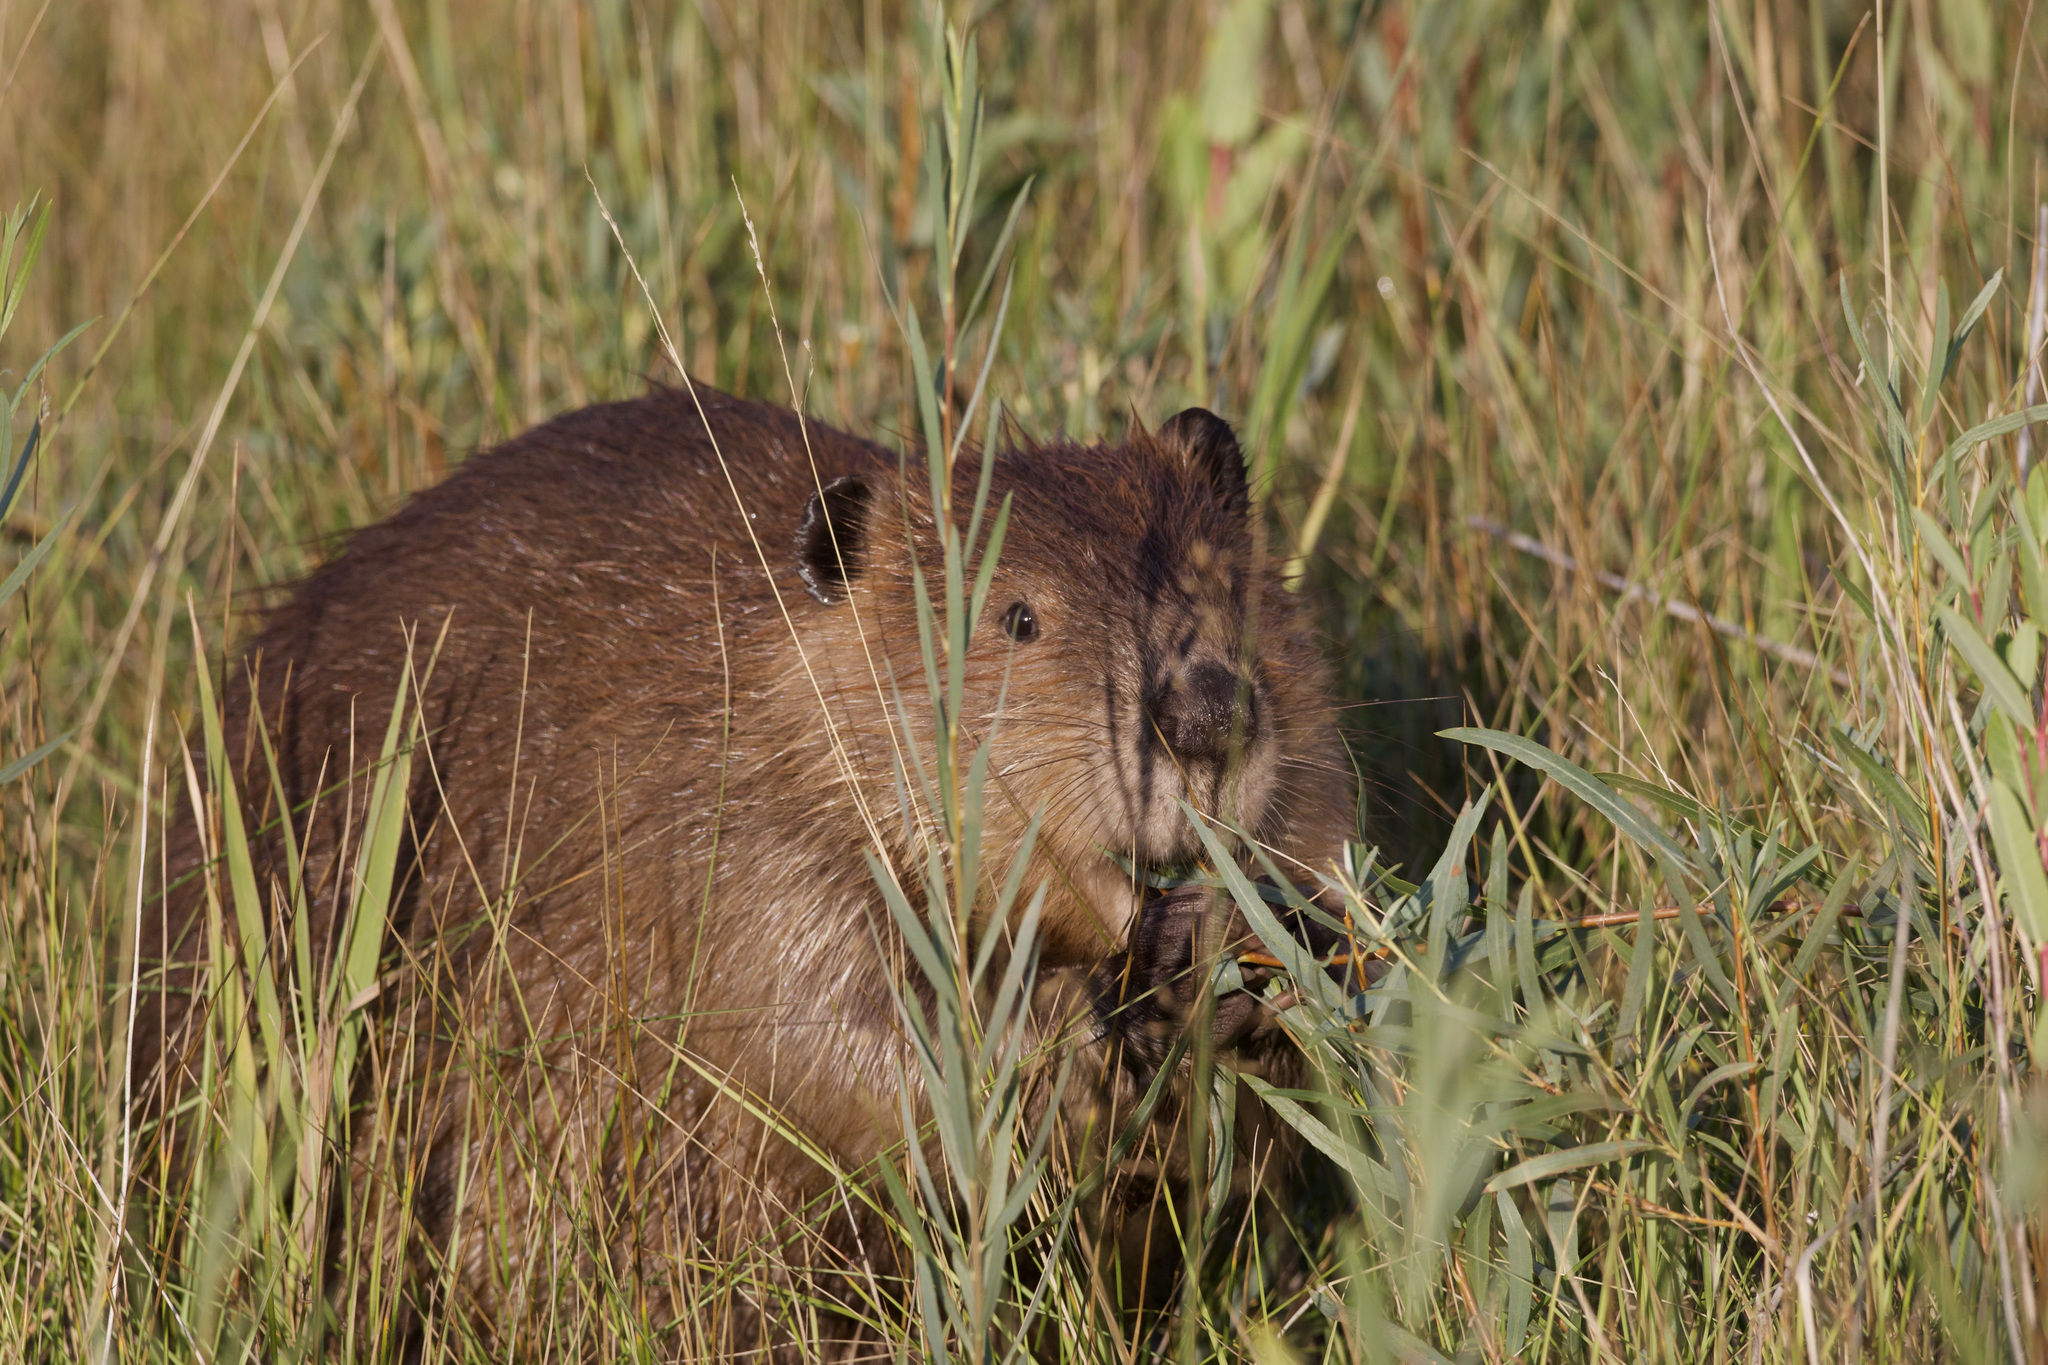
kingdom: Animalia
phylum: Chordata
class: Mammalia
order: Rodentia
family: Castoridae
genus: Castor
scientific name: Castor canadensis
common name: American beaver
